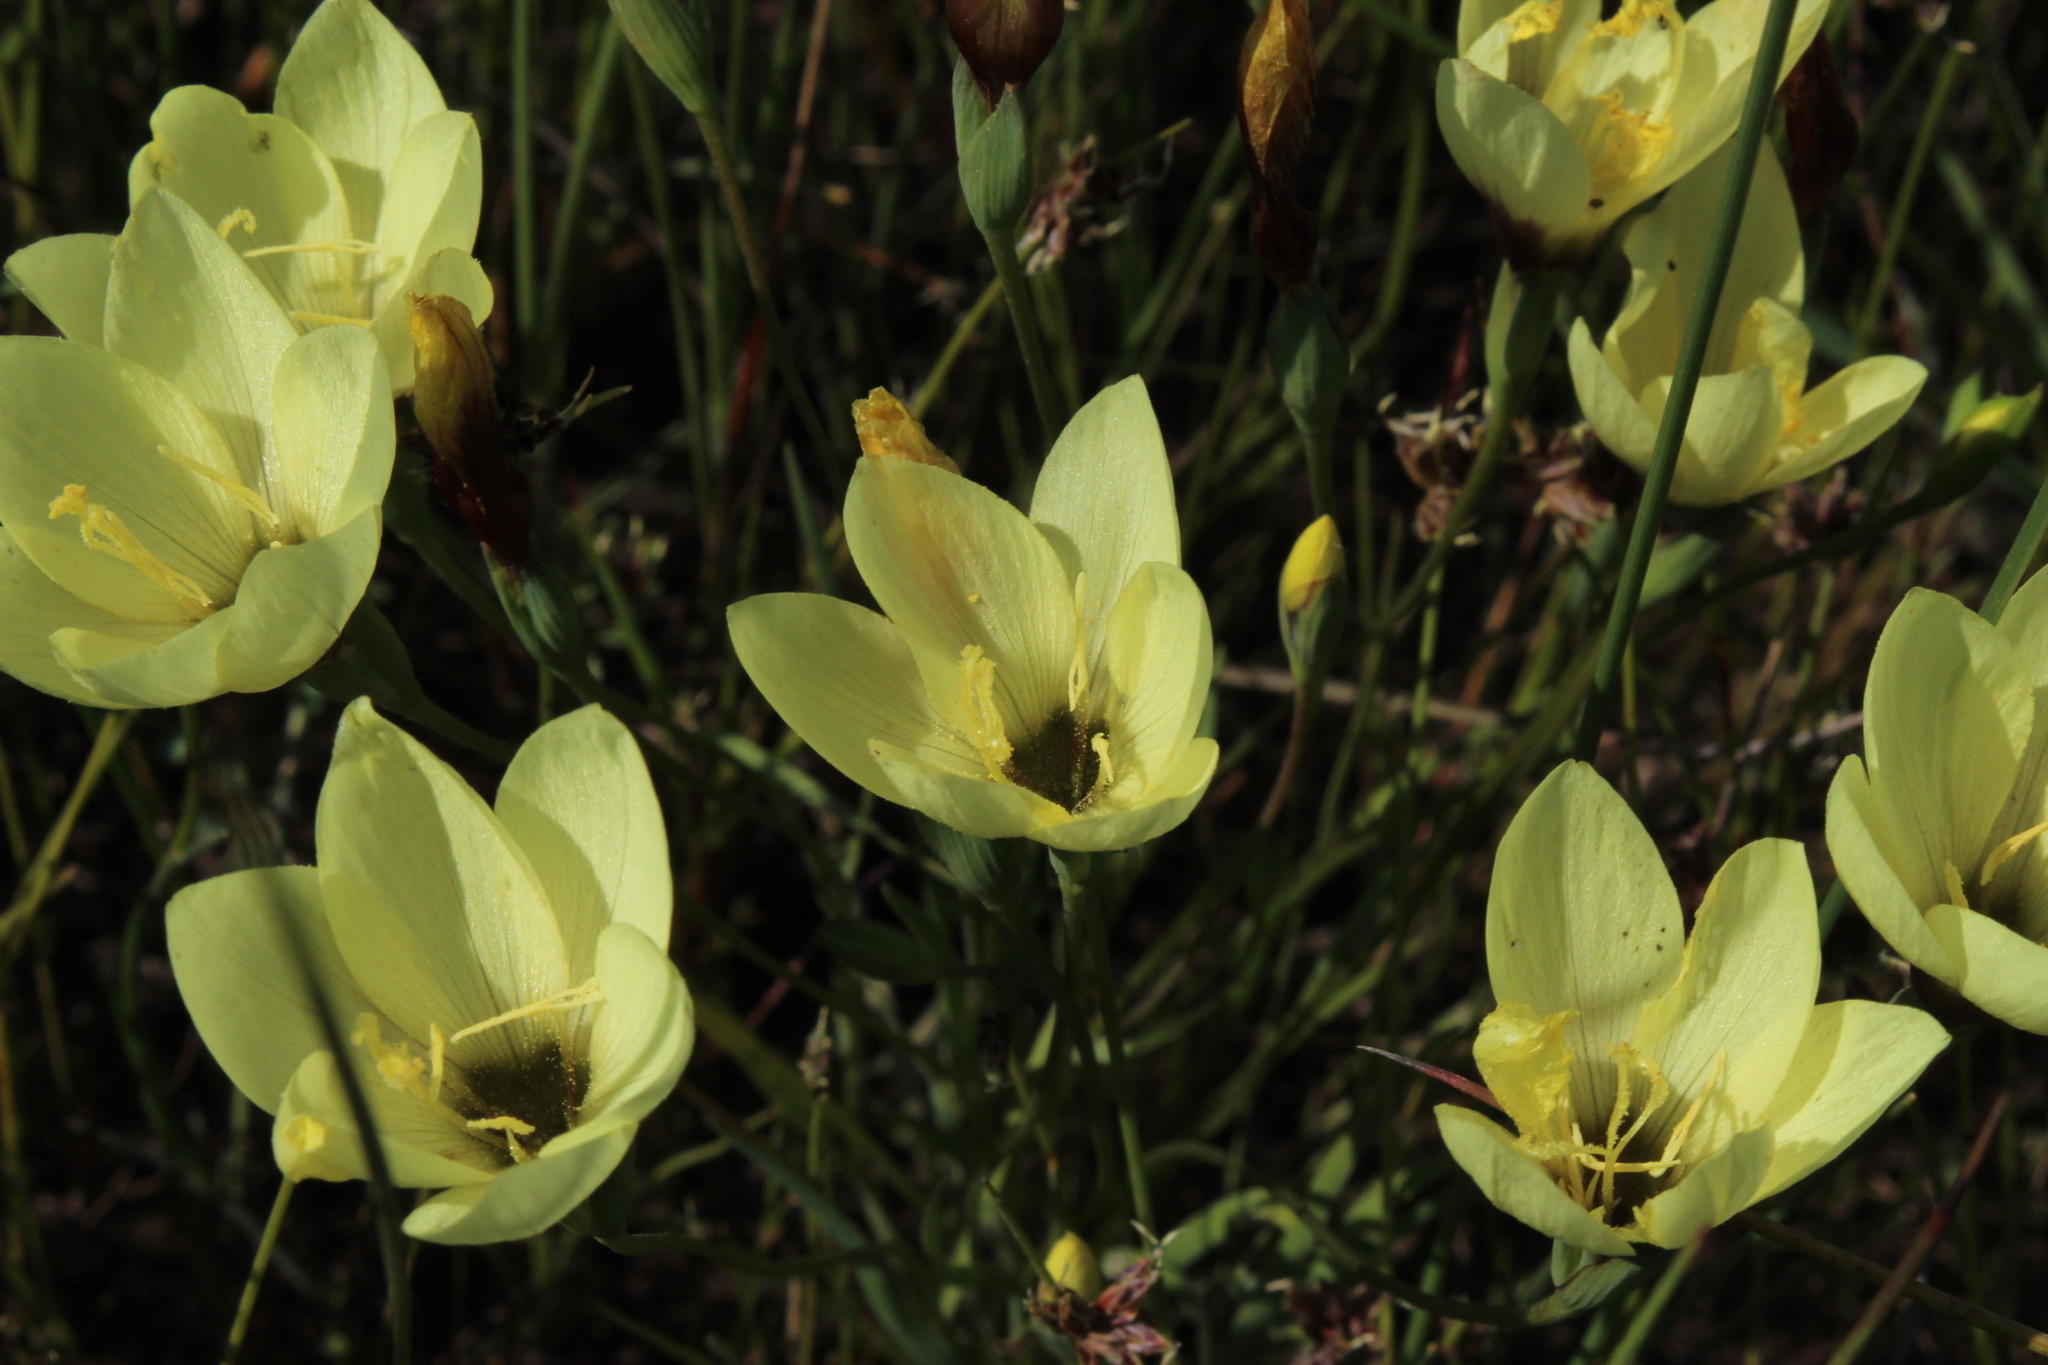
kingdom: Plantae
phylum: Tracheophyta
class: Liliopsida
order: Asparagales
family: Iridaceae
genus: Geissorhiza
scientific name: Geissorhiza purpureolutea
